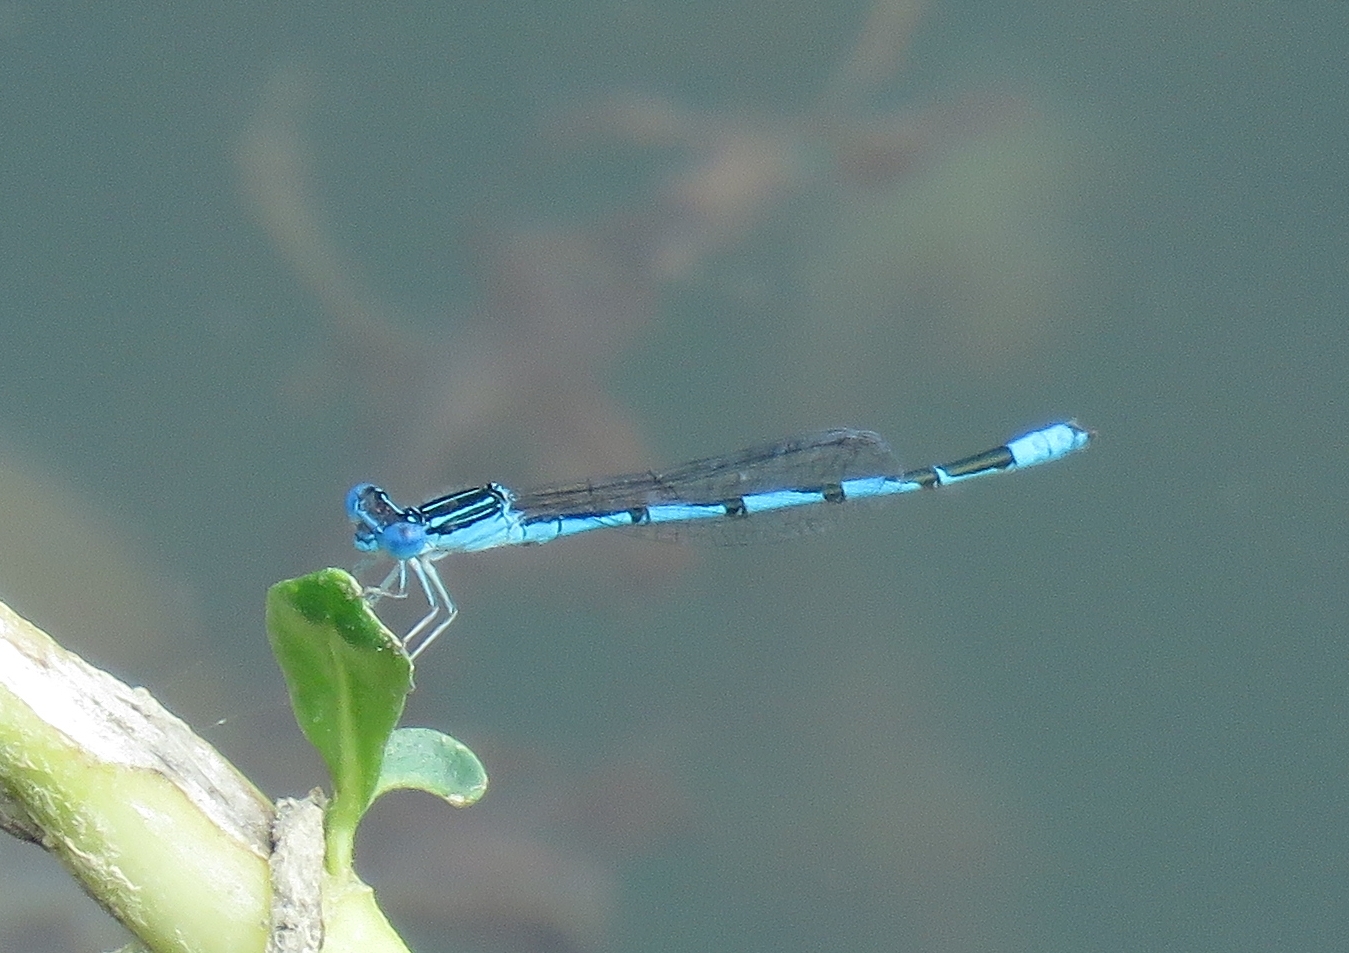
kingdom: Animalia
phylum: Arthropoda
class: Insecta
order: Odonata
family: Coenagrionidae
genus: Enallagma
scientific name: Enallagma basidens
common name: Double-striped bluet
